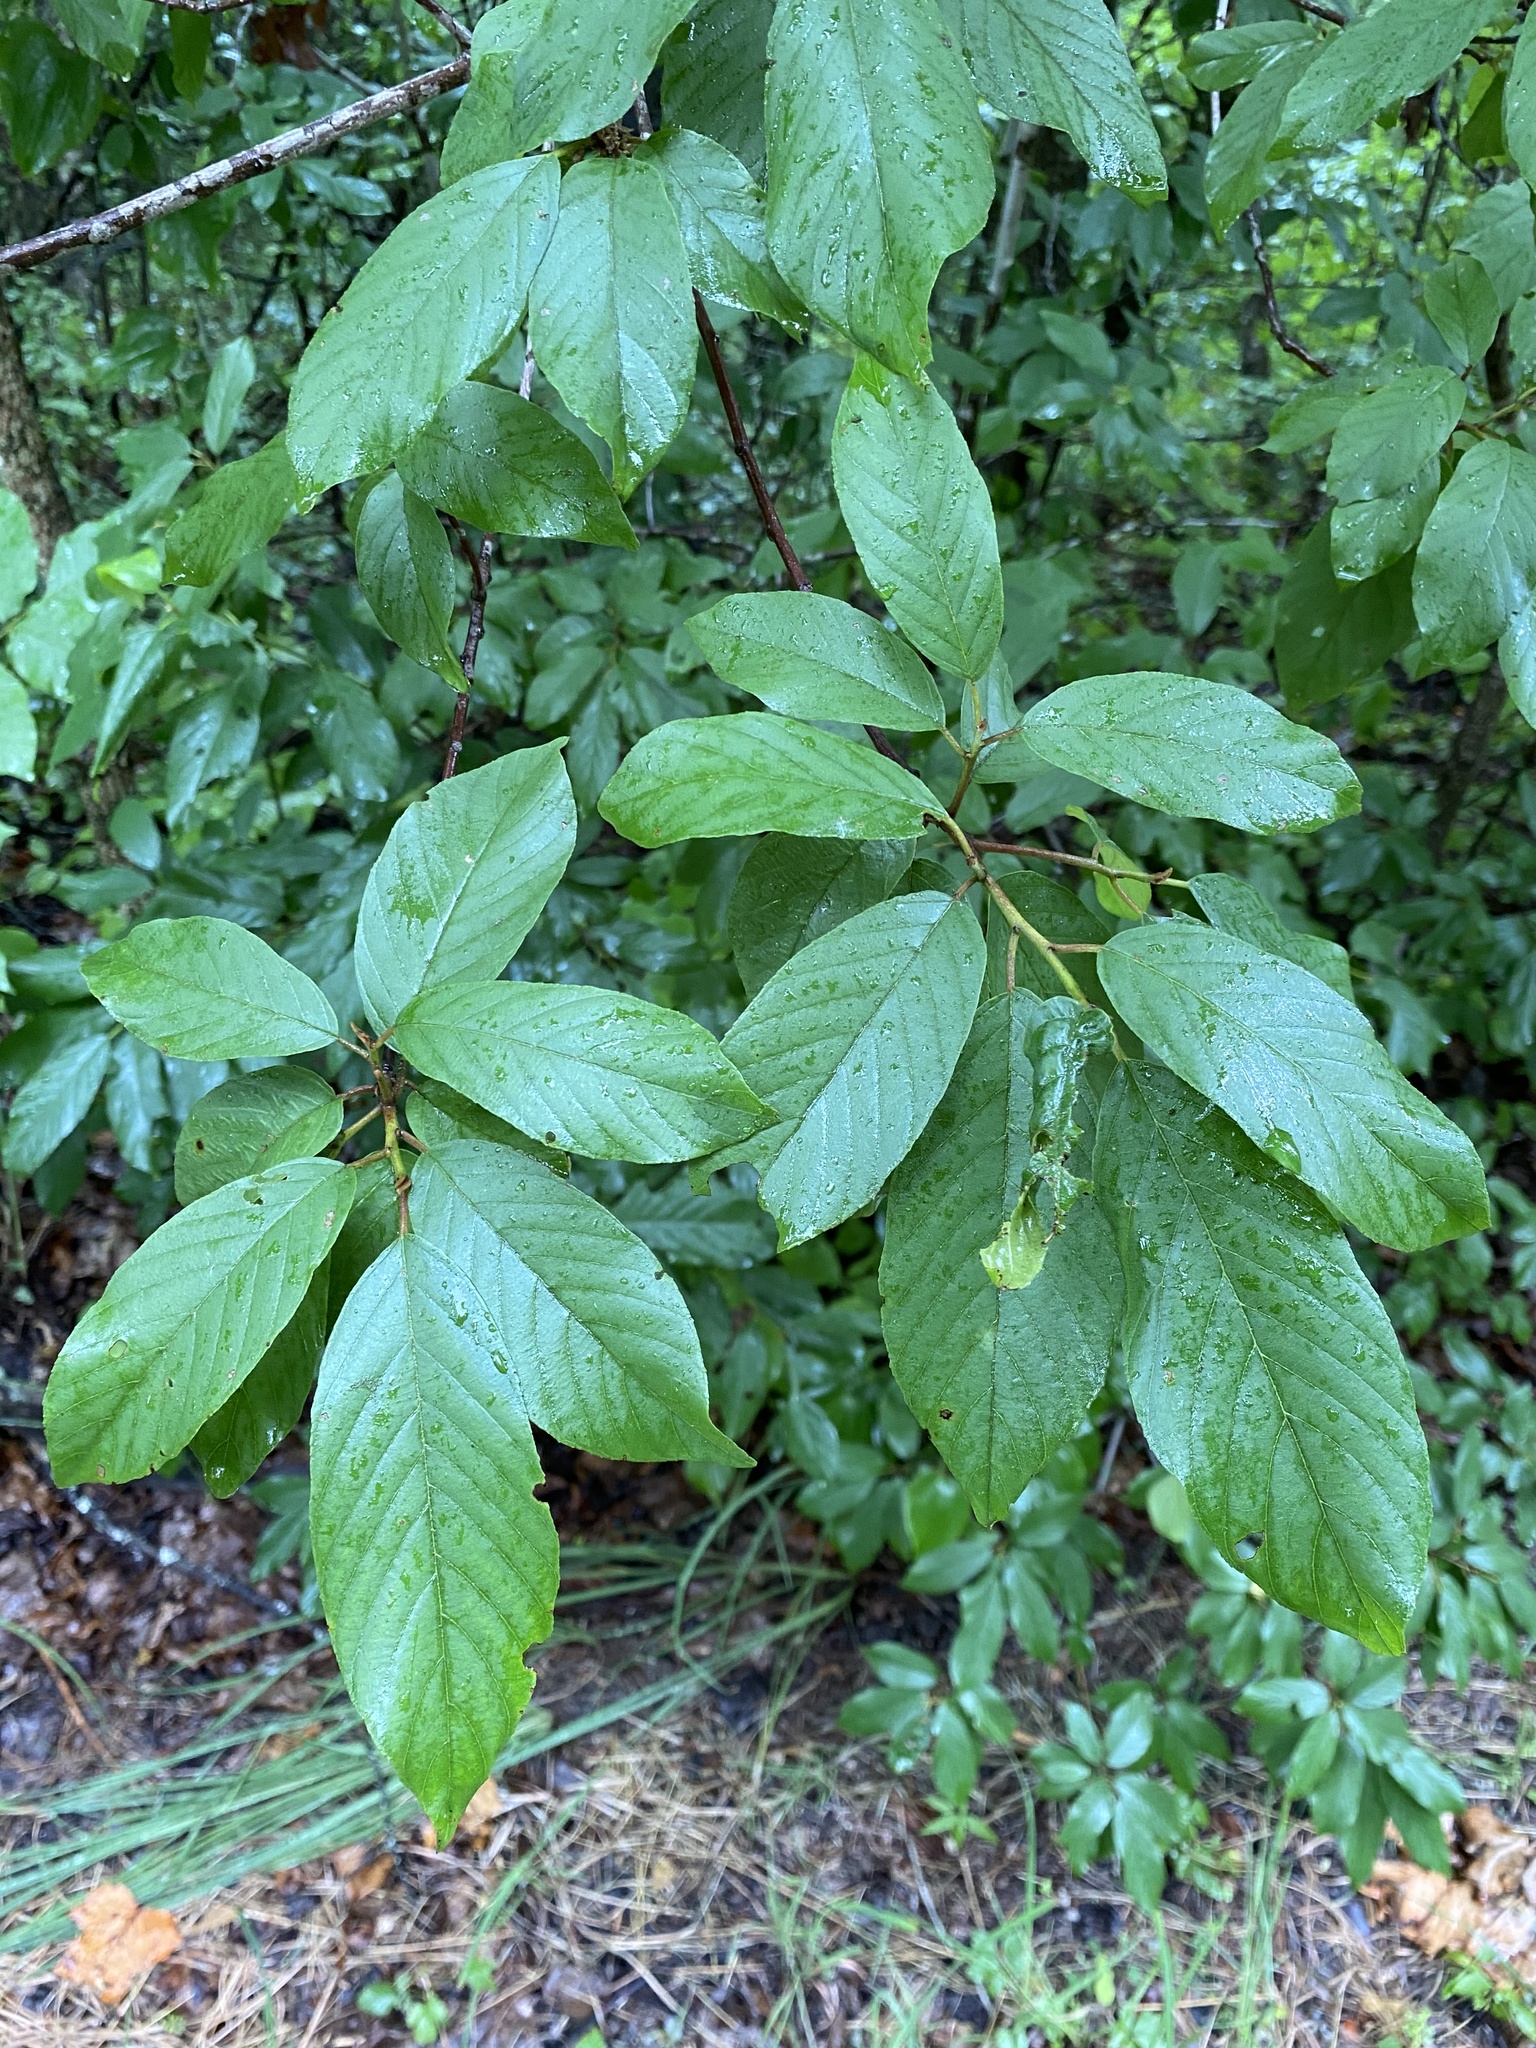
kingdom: Plantae
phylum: Tracheophyta
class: Magnoliopsida
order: Rosales
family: Rhamnaceae
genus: Frangula
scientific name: Frangula caroliniana
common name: Carolina buckthorn
